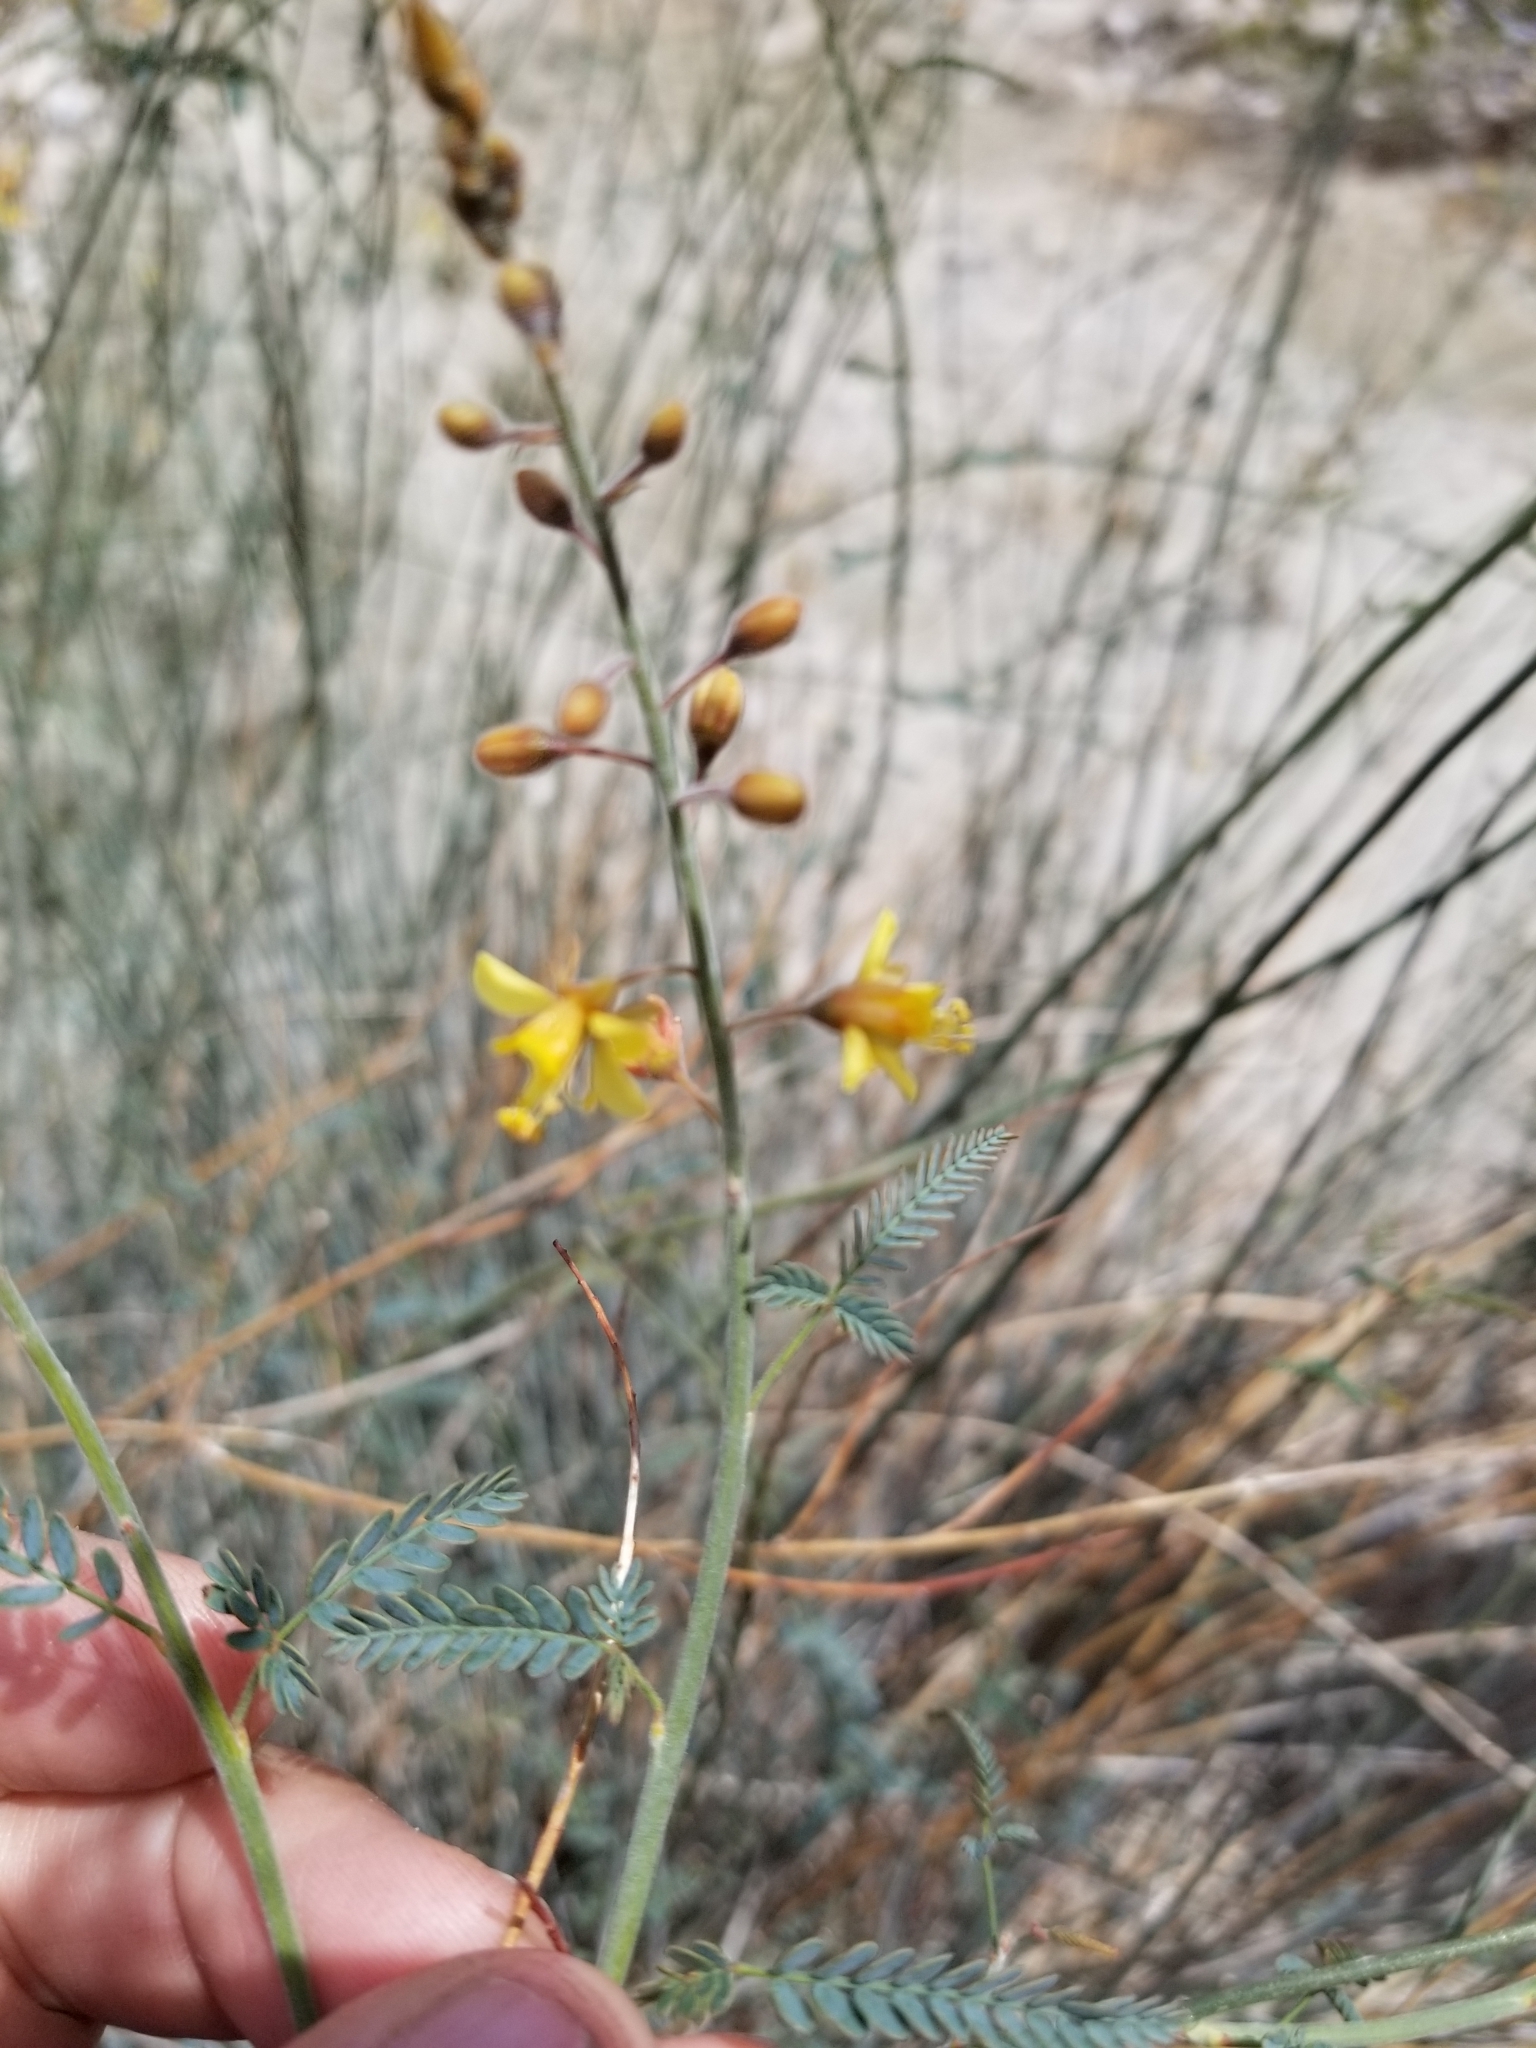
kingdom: Plantae
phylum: Tracheophyta
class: Magnoliopsida
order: Fabales
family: Fabaceae
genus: Hoffmannseggia
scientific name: Hoffmannseggia microphylla
